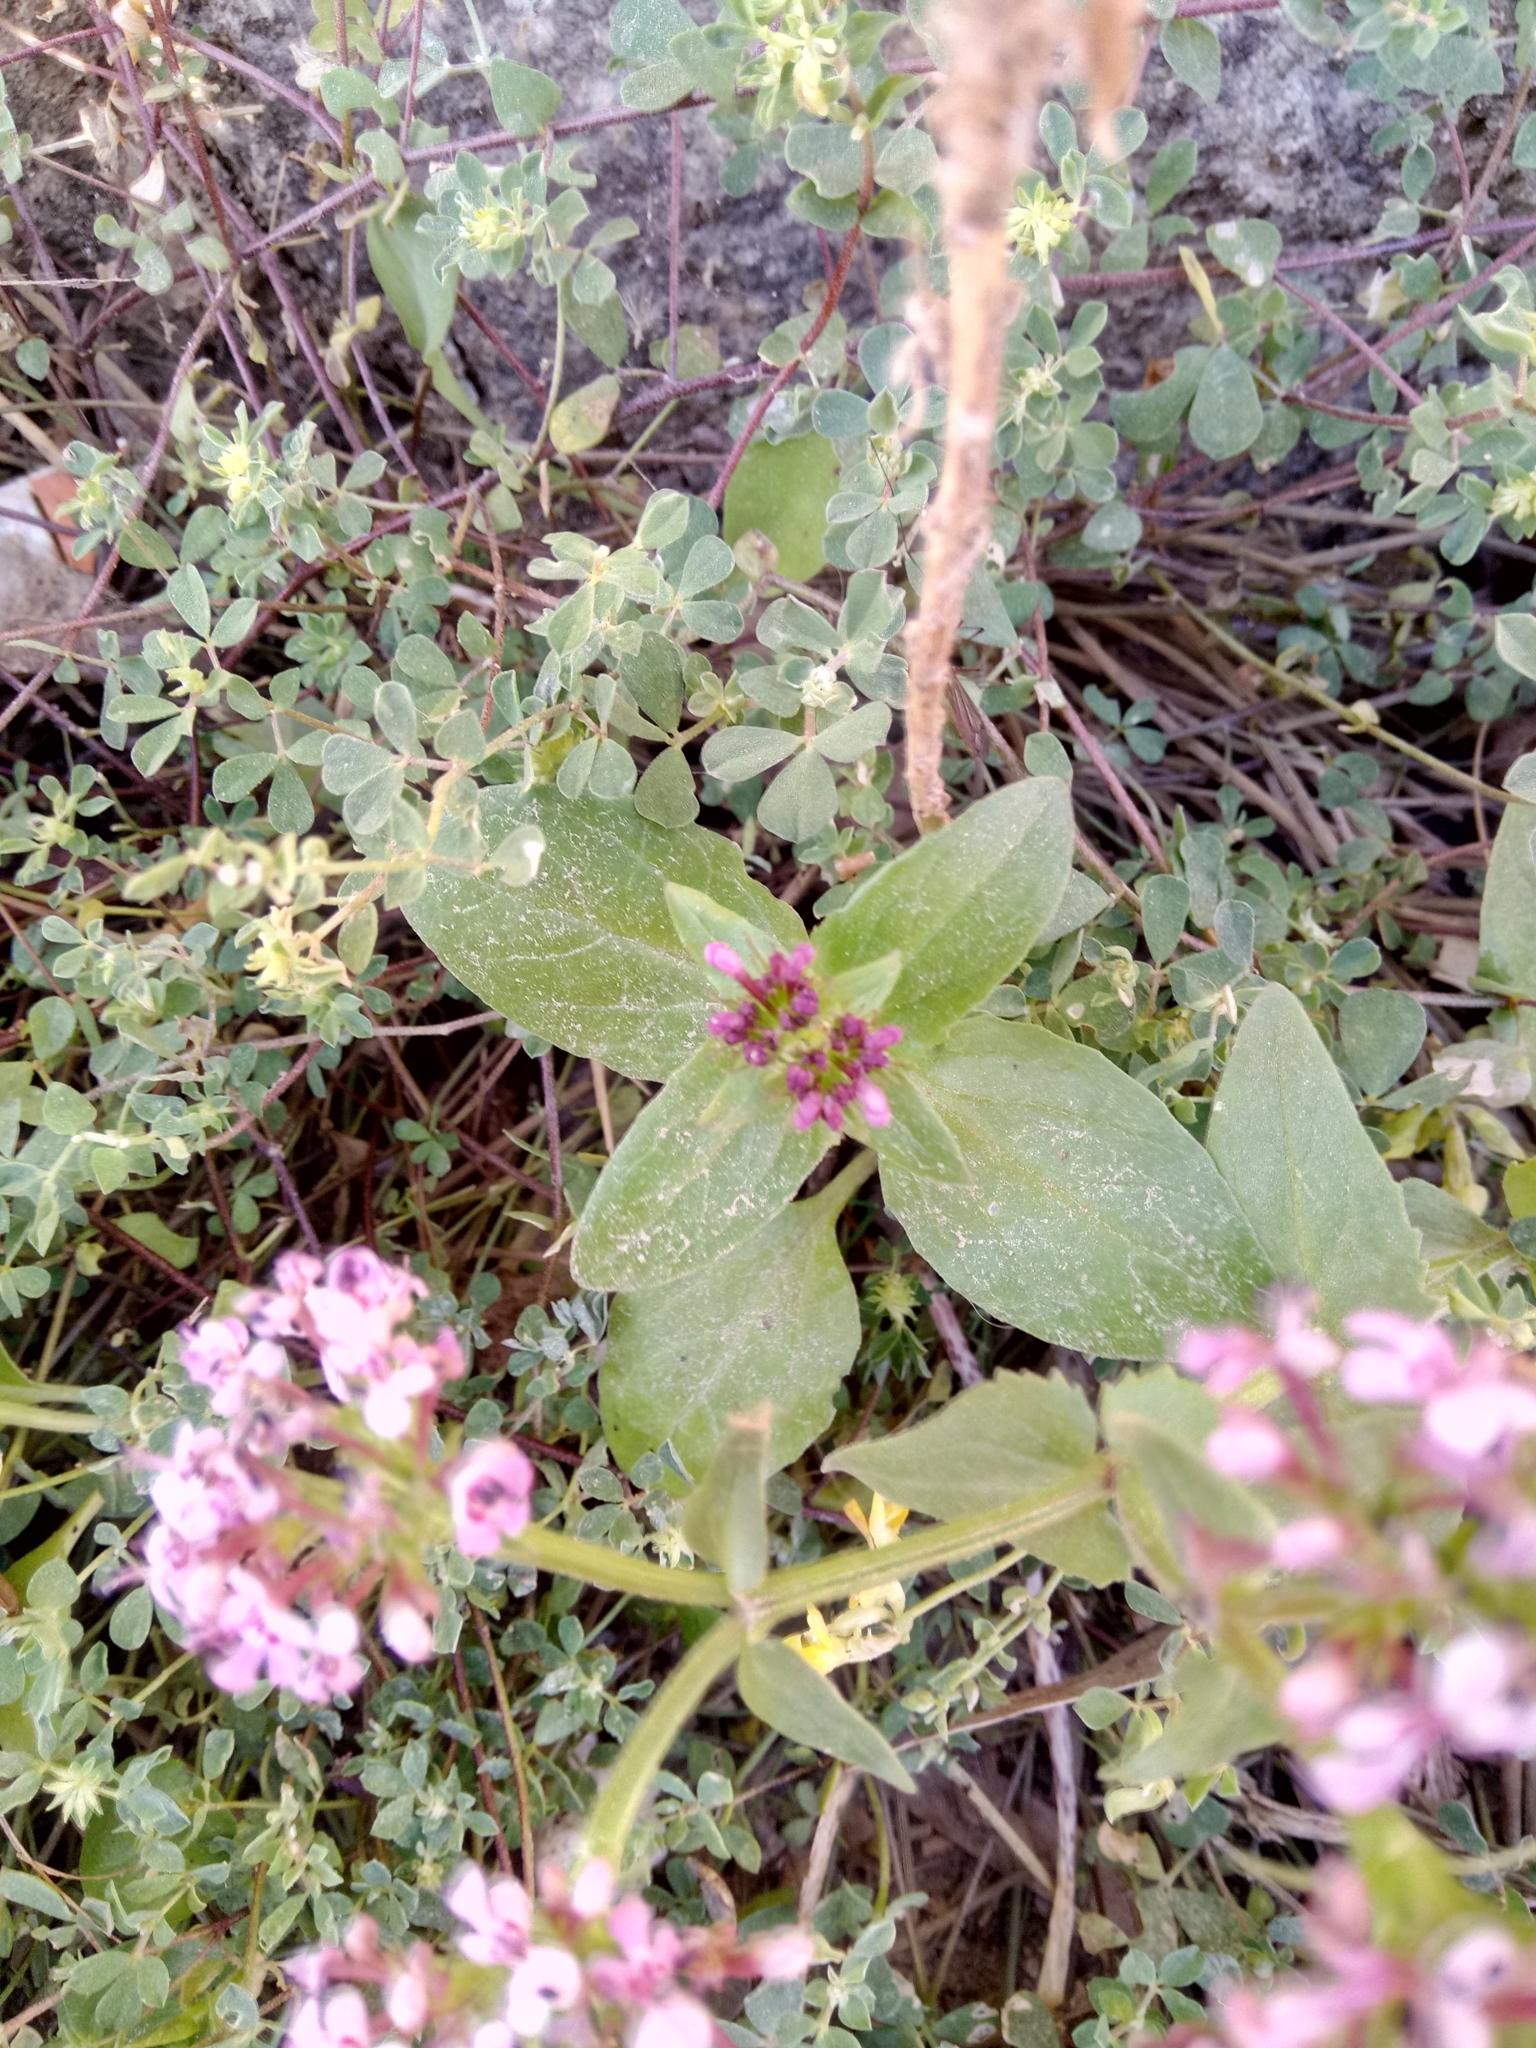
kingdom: Plantae
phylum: Tracheophyta
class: Magnoliopsida
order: Dipsacales
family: Caprifoliaceae
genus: Fedia
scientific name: Fedia graciliflora
